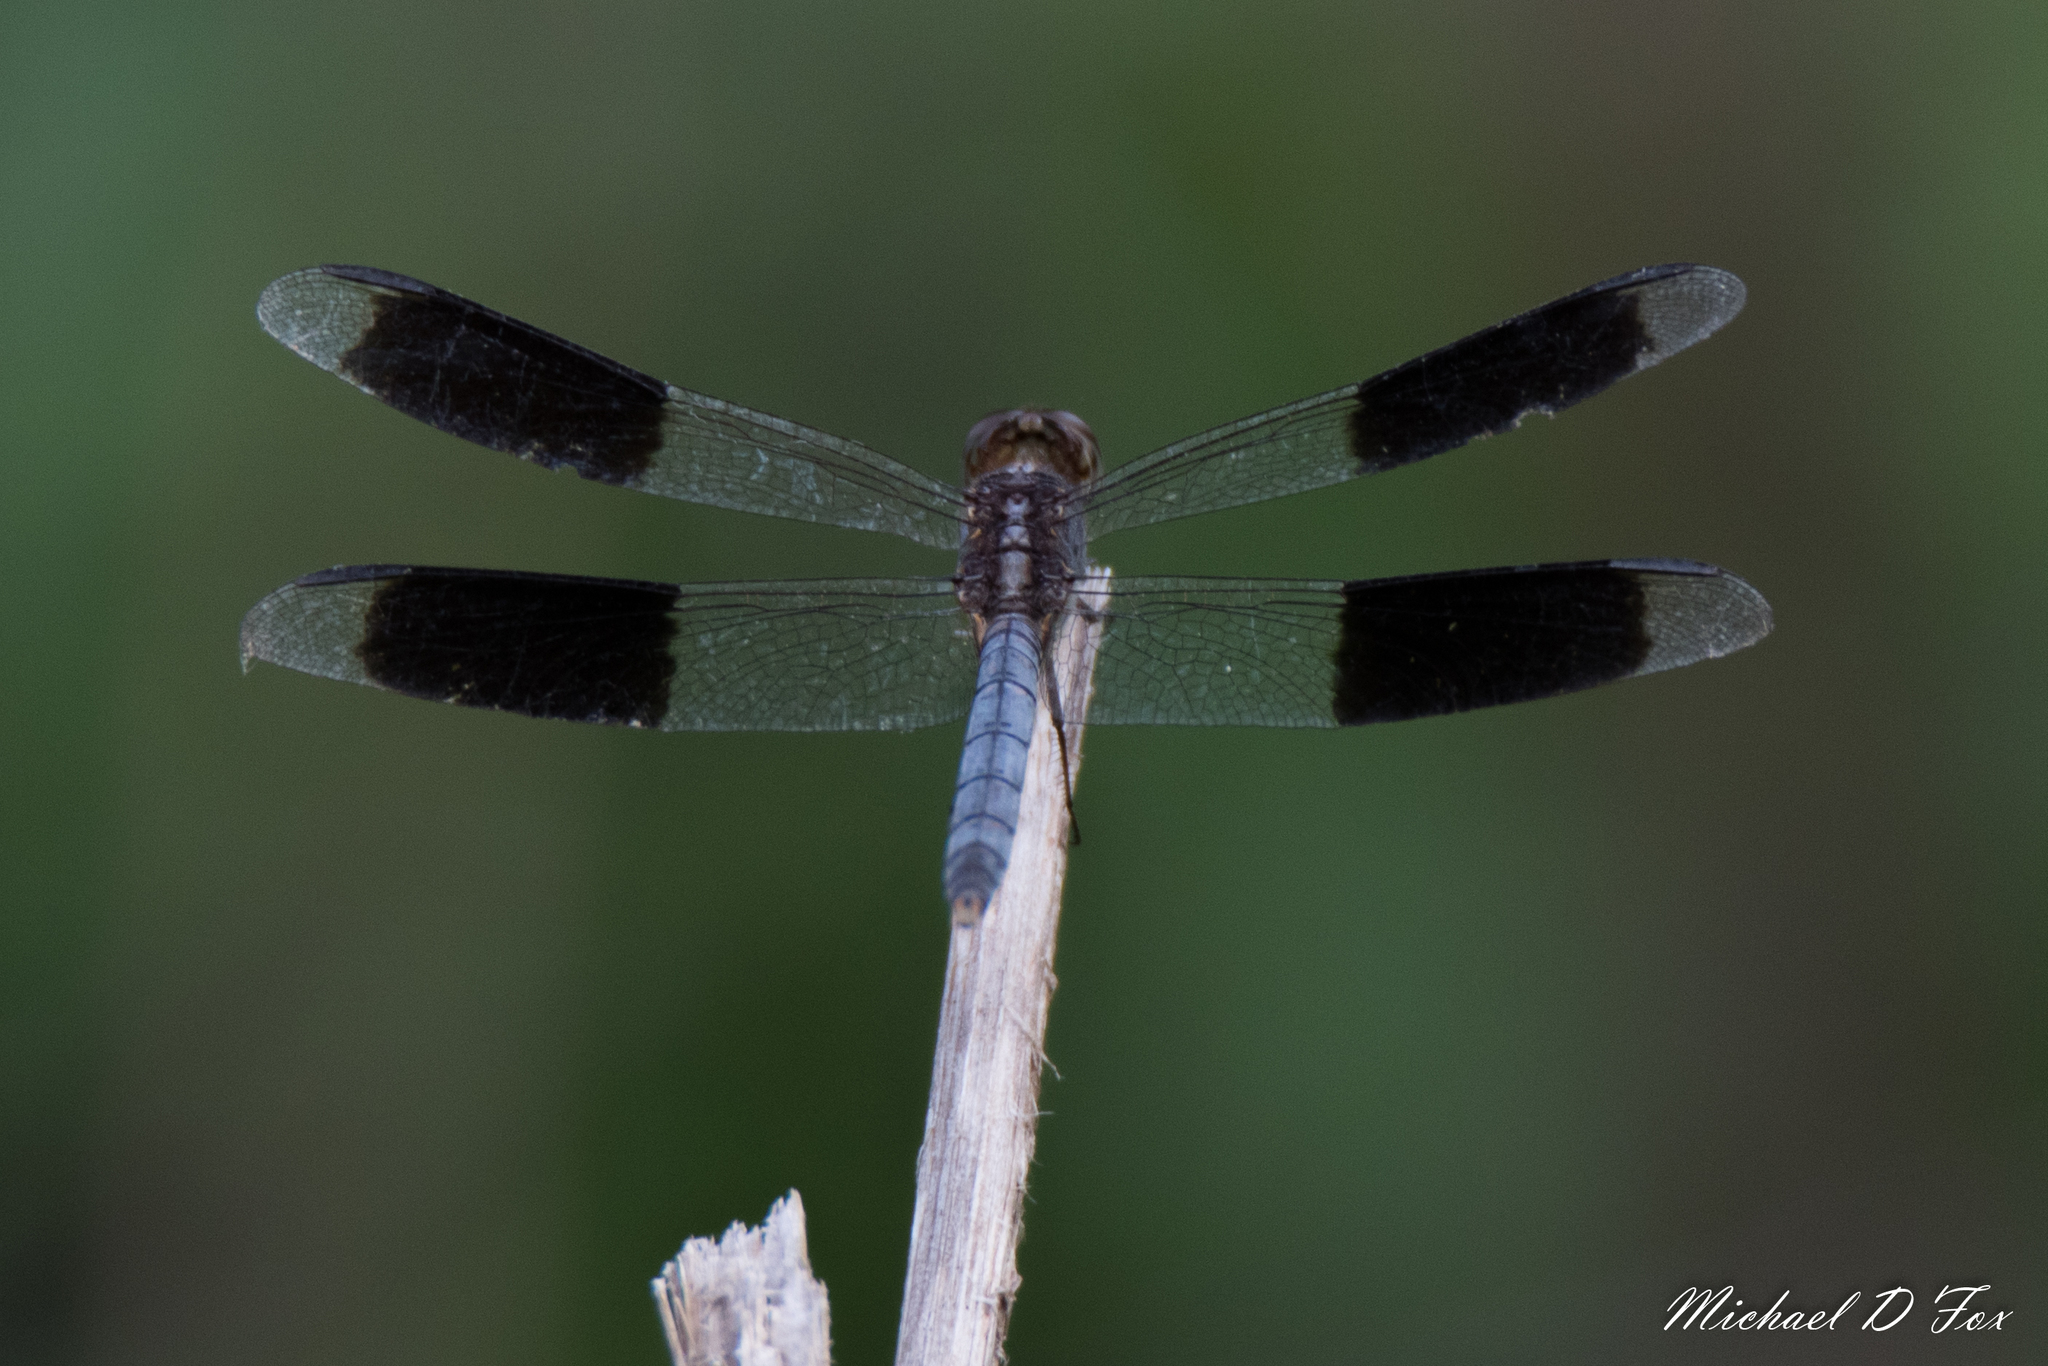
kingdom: Animalia
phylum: Arthropoda
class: Insecta
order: Odonata
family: Libellulidae
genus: Erythrodiplax
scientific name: Erythrodiplax umbrata
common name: Band-winged dragonlet
